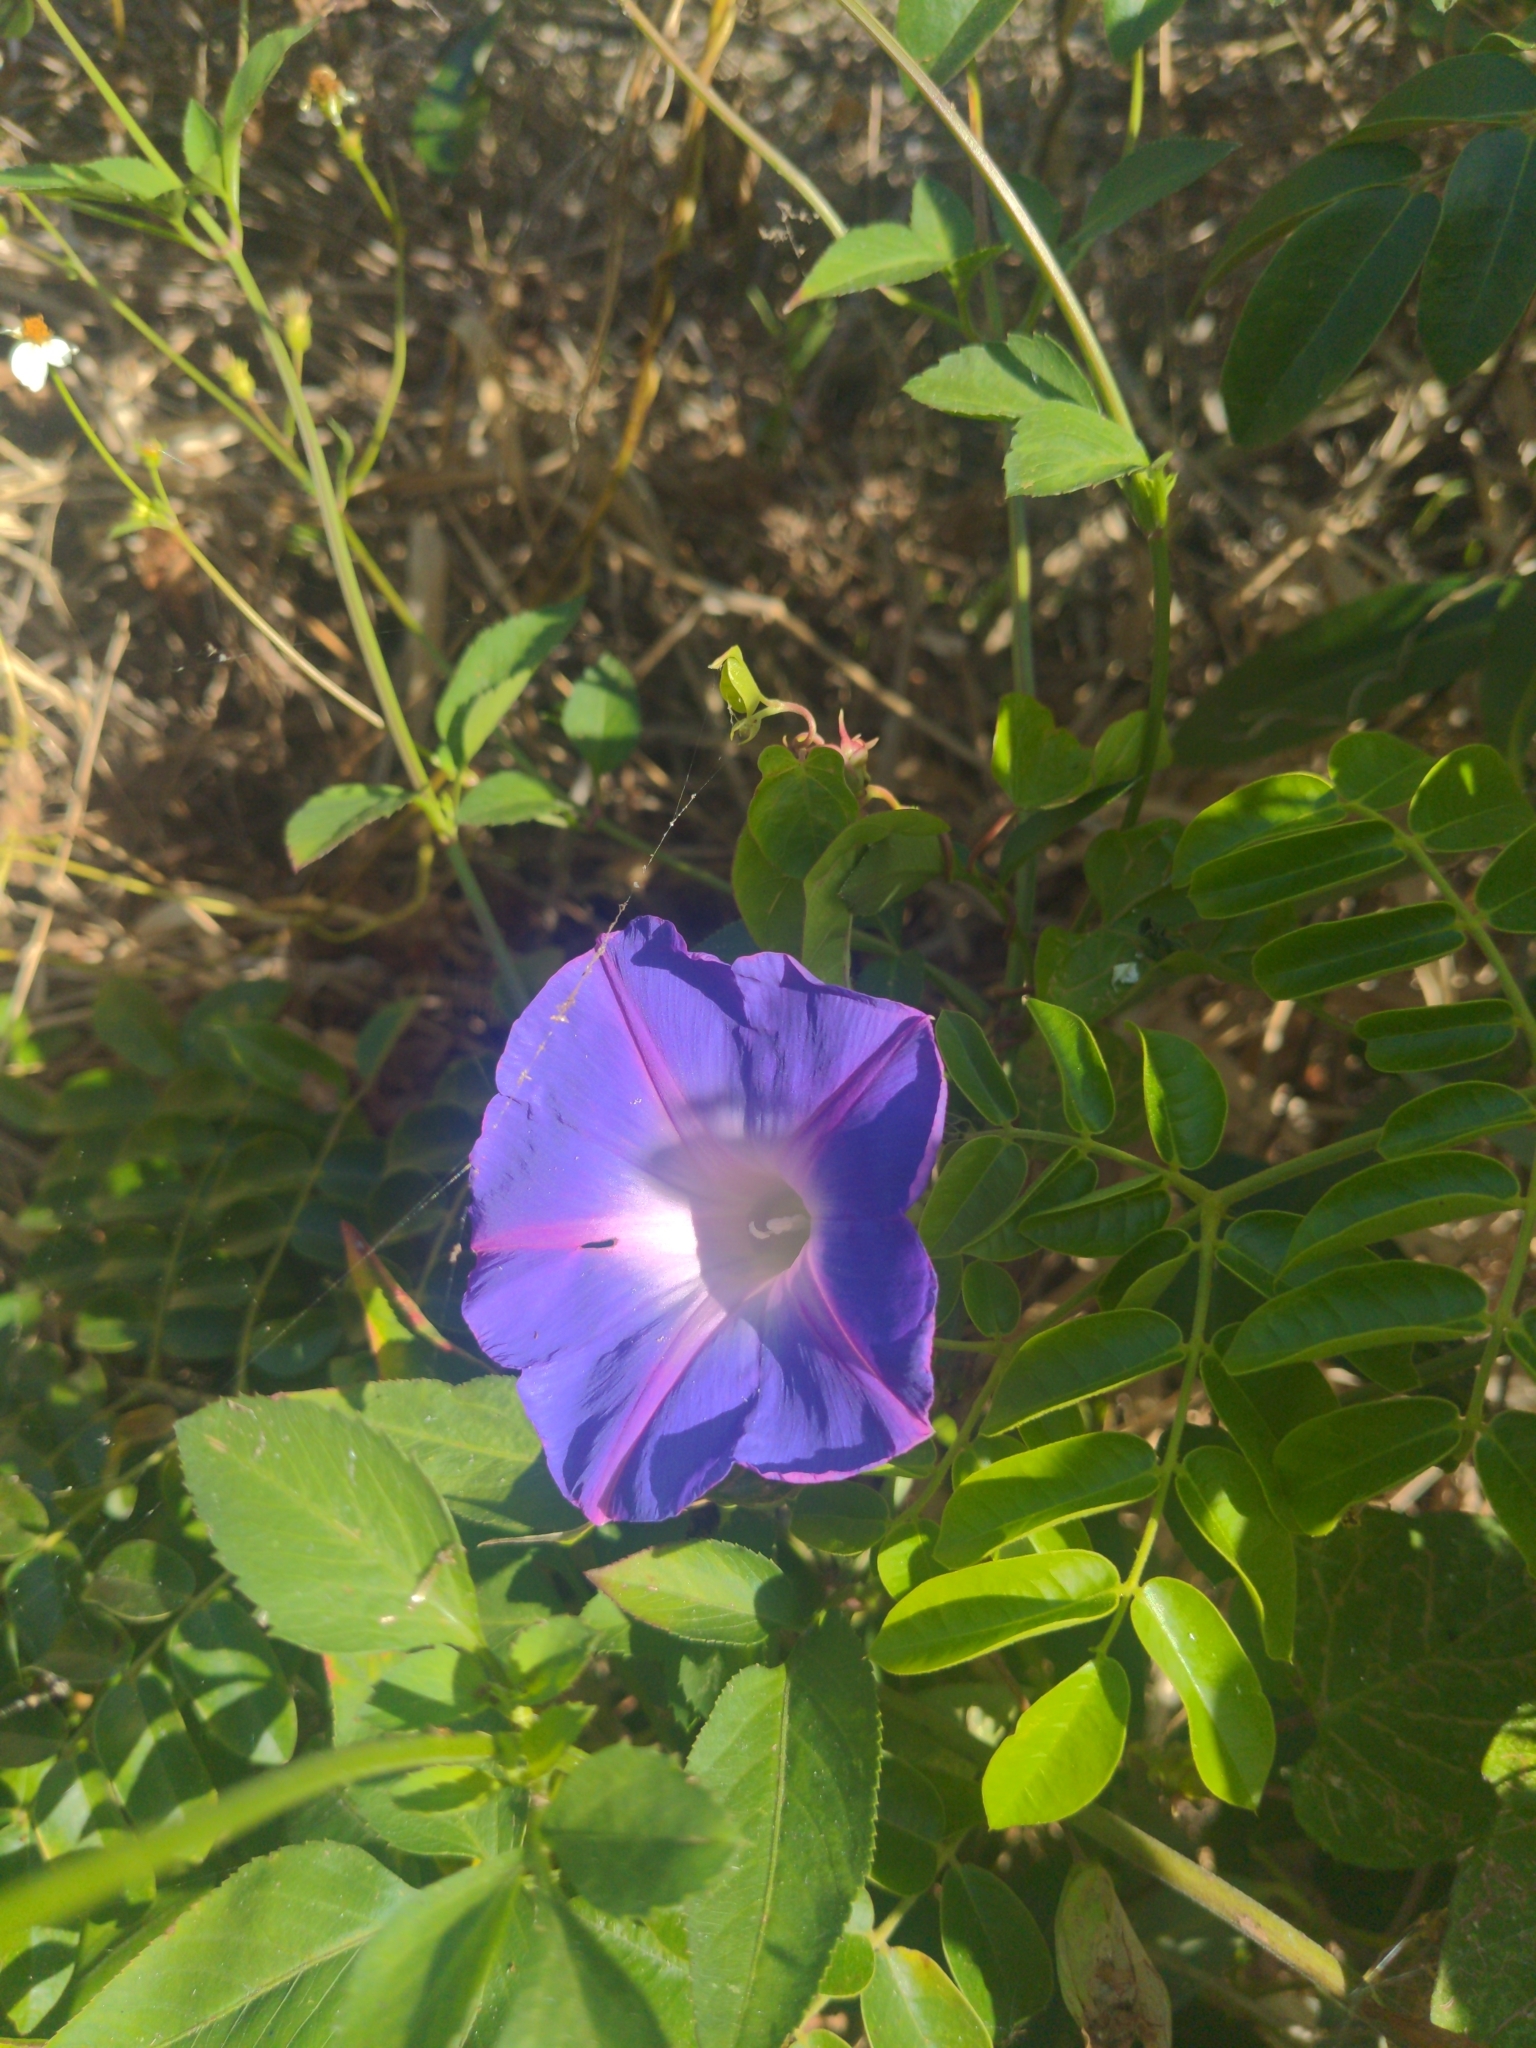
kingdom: Plantae
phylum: Tracheophyta
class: Magnoliopsida
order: Solanales
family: Convolvulaceae
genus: Ipomoea
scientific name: Ipomoea indica
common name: Blue dawnflower
